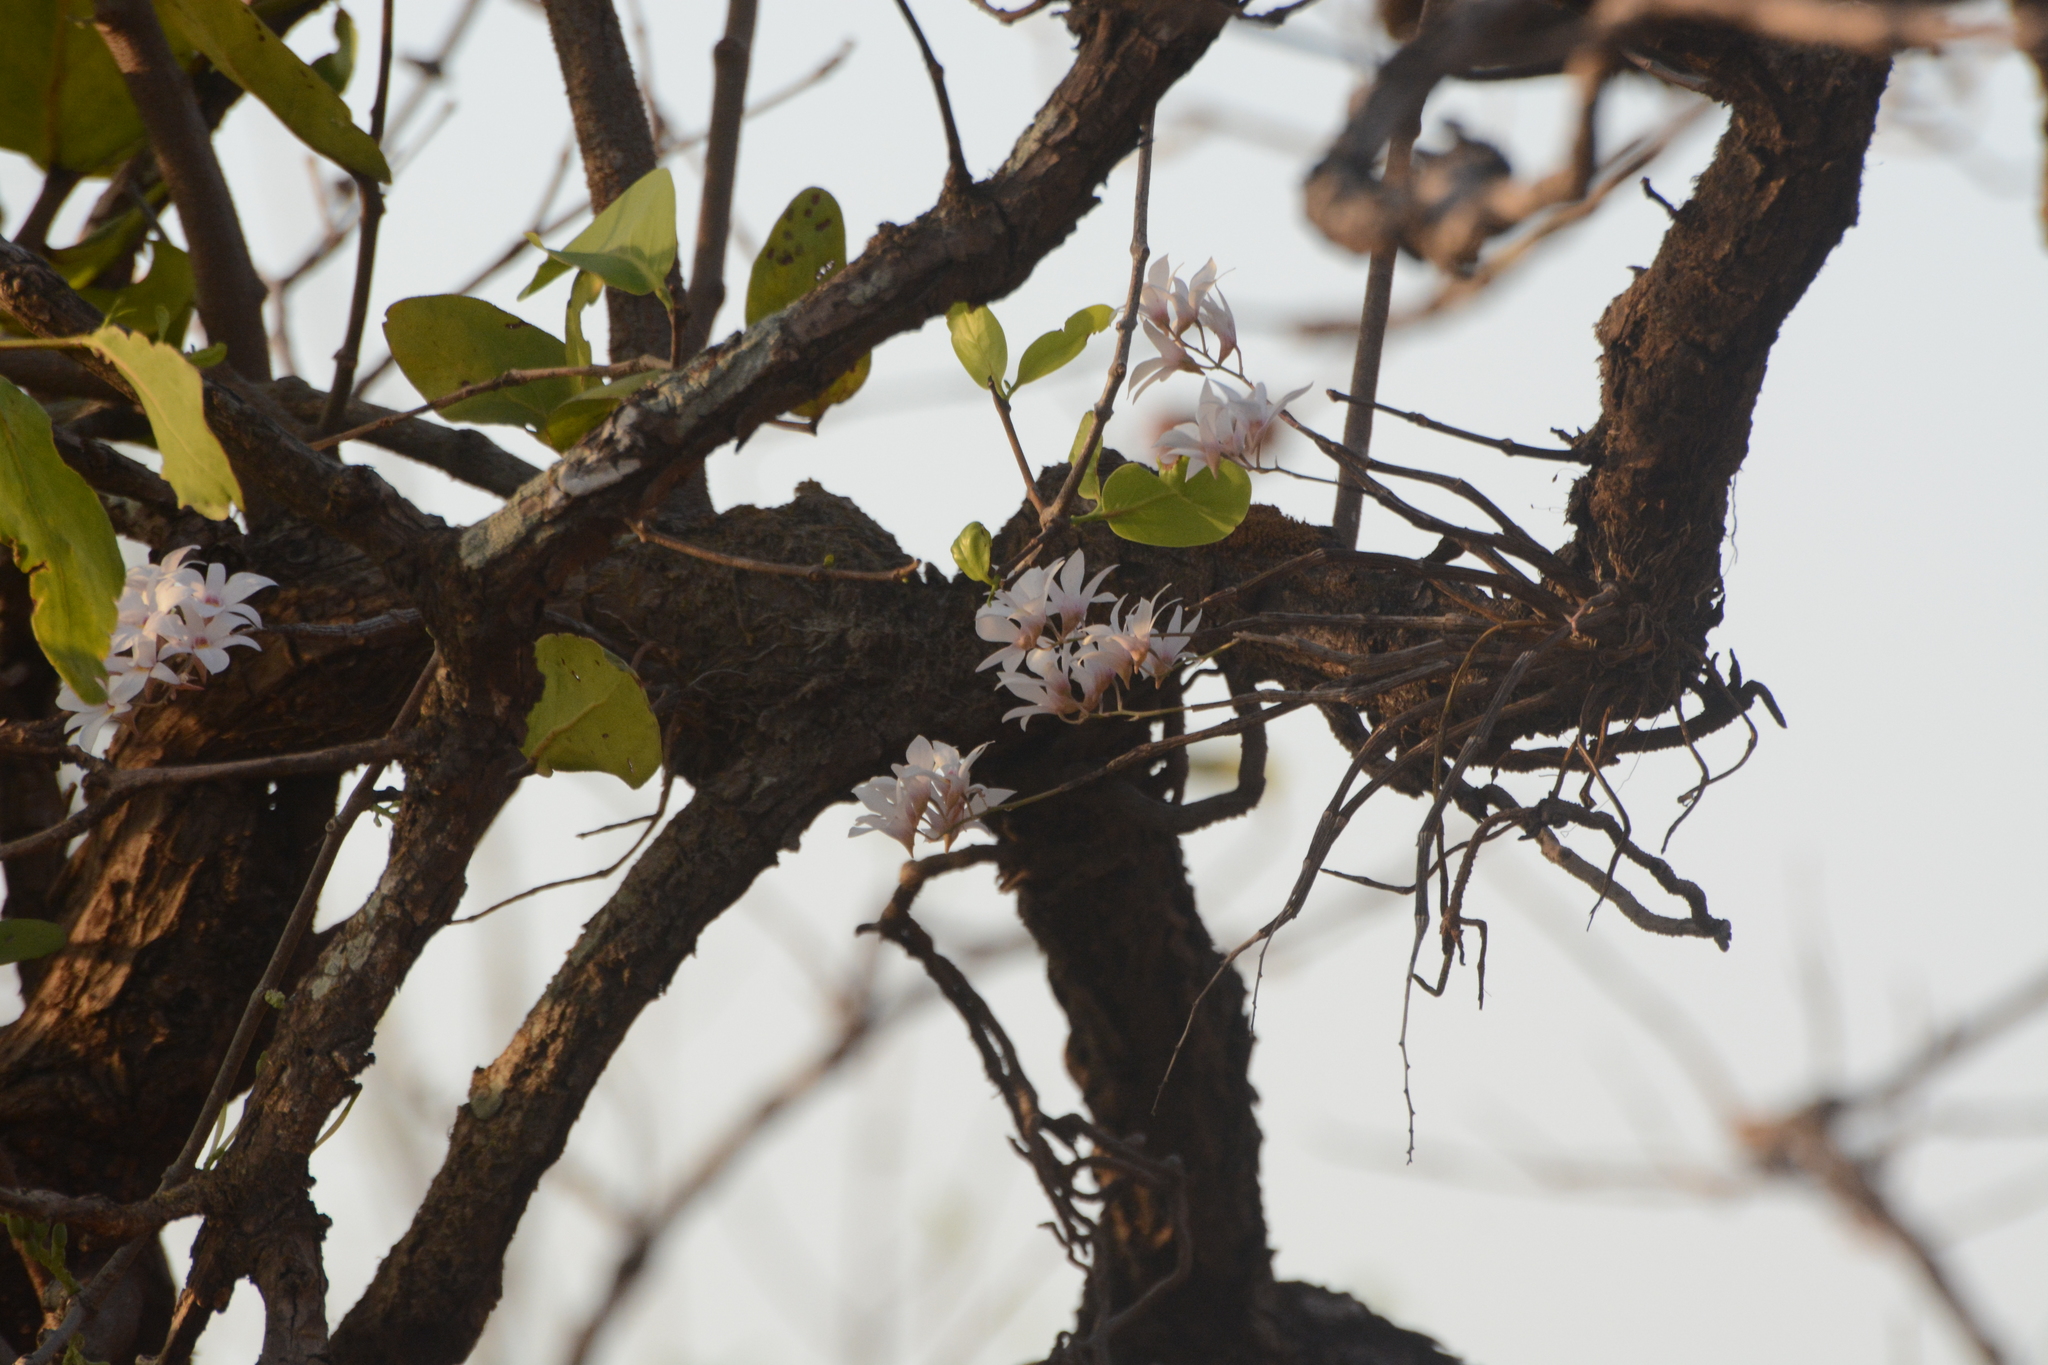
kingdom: Plantae
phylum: Tracheophyta
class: Liliopsida
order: Asparagales
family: Orchidaceae
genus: Dendrobium
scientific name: Dendrobium barbatulum
